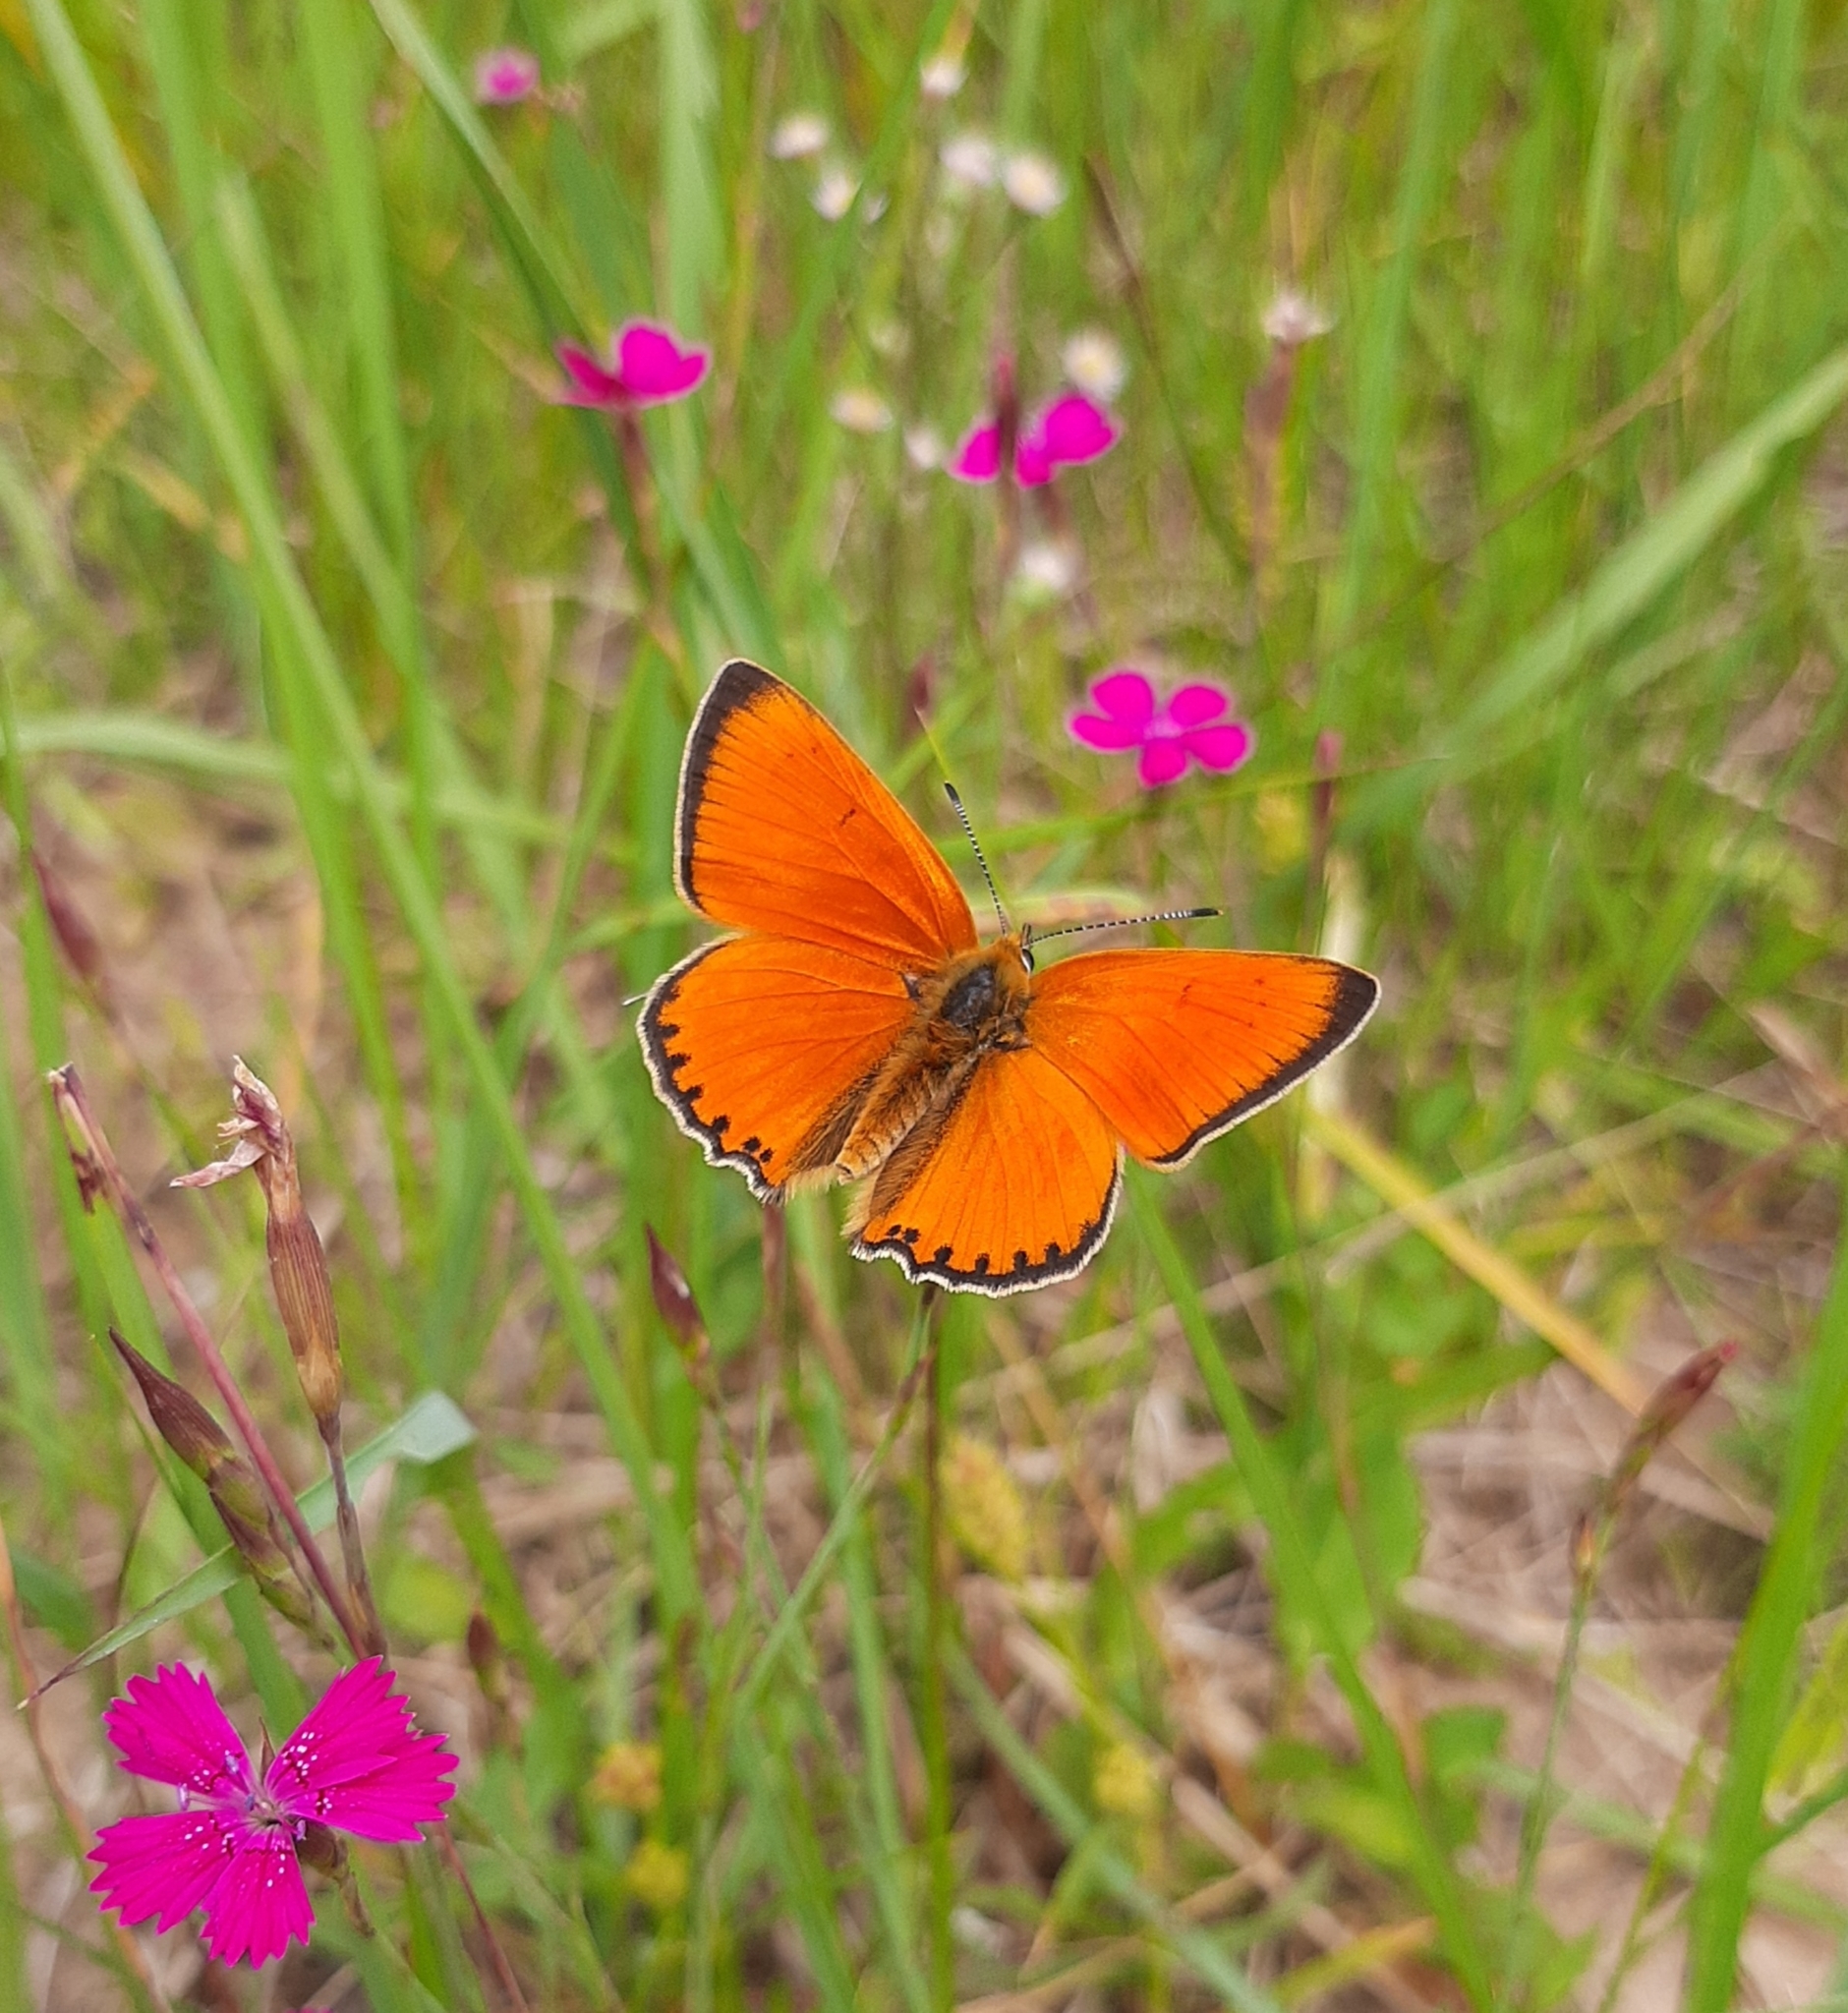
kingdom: Animalia
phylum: Arthropoda
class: Insecta
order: Lepidoptera
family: Lycaenidae
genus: Lycaena
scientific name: Lycaena virgaureae
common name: Scarce copper
